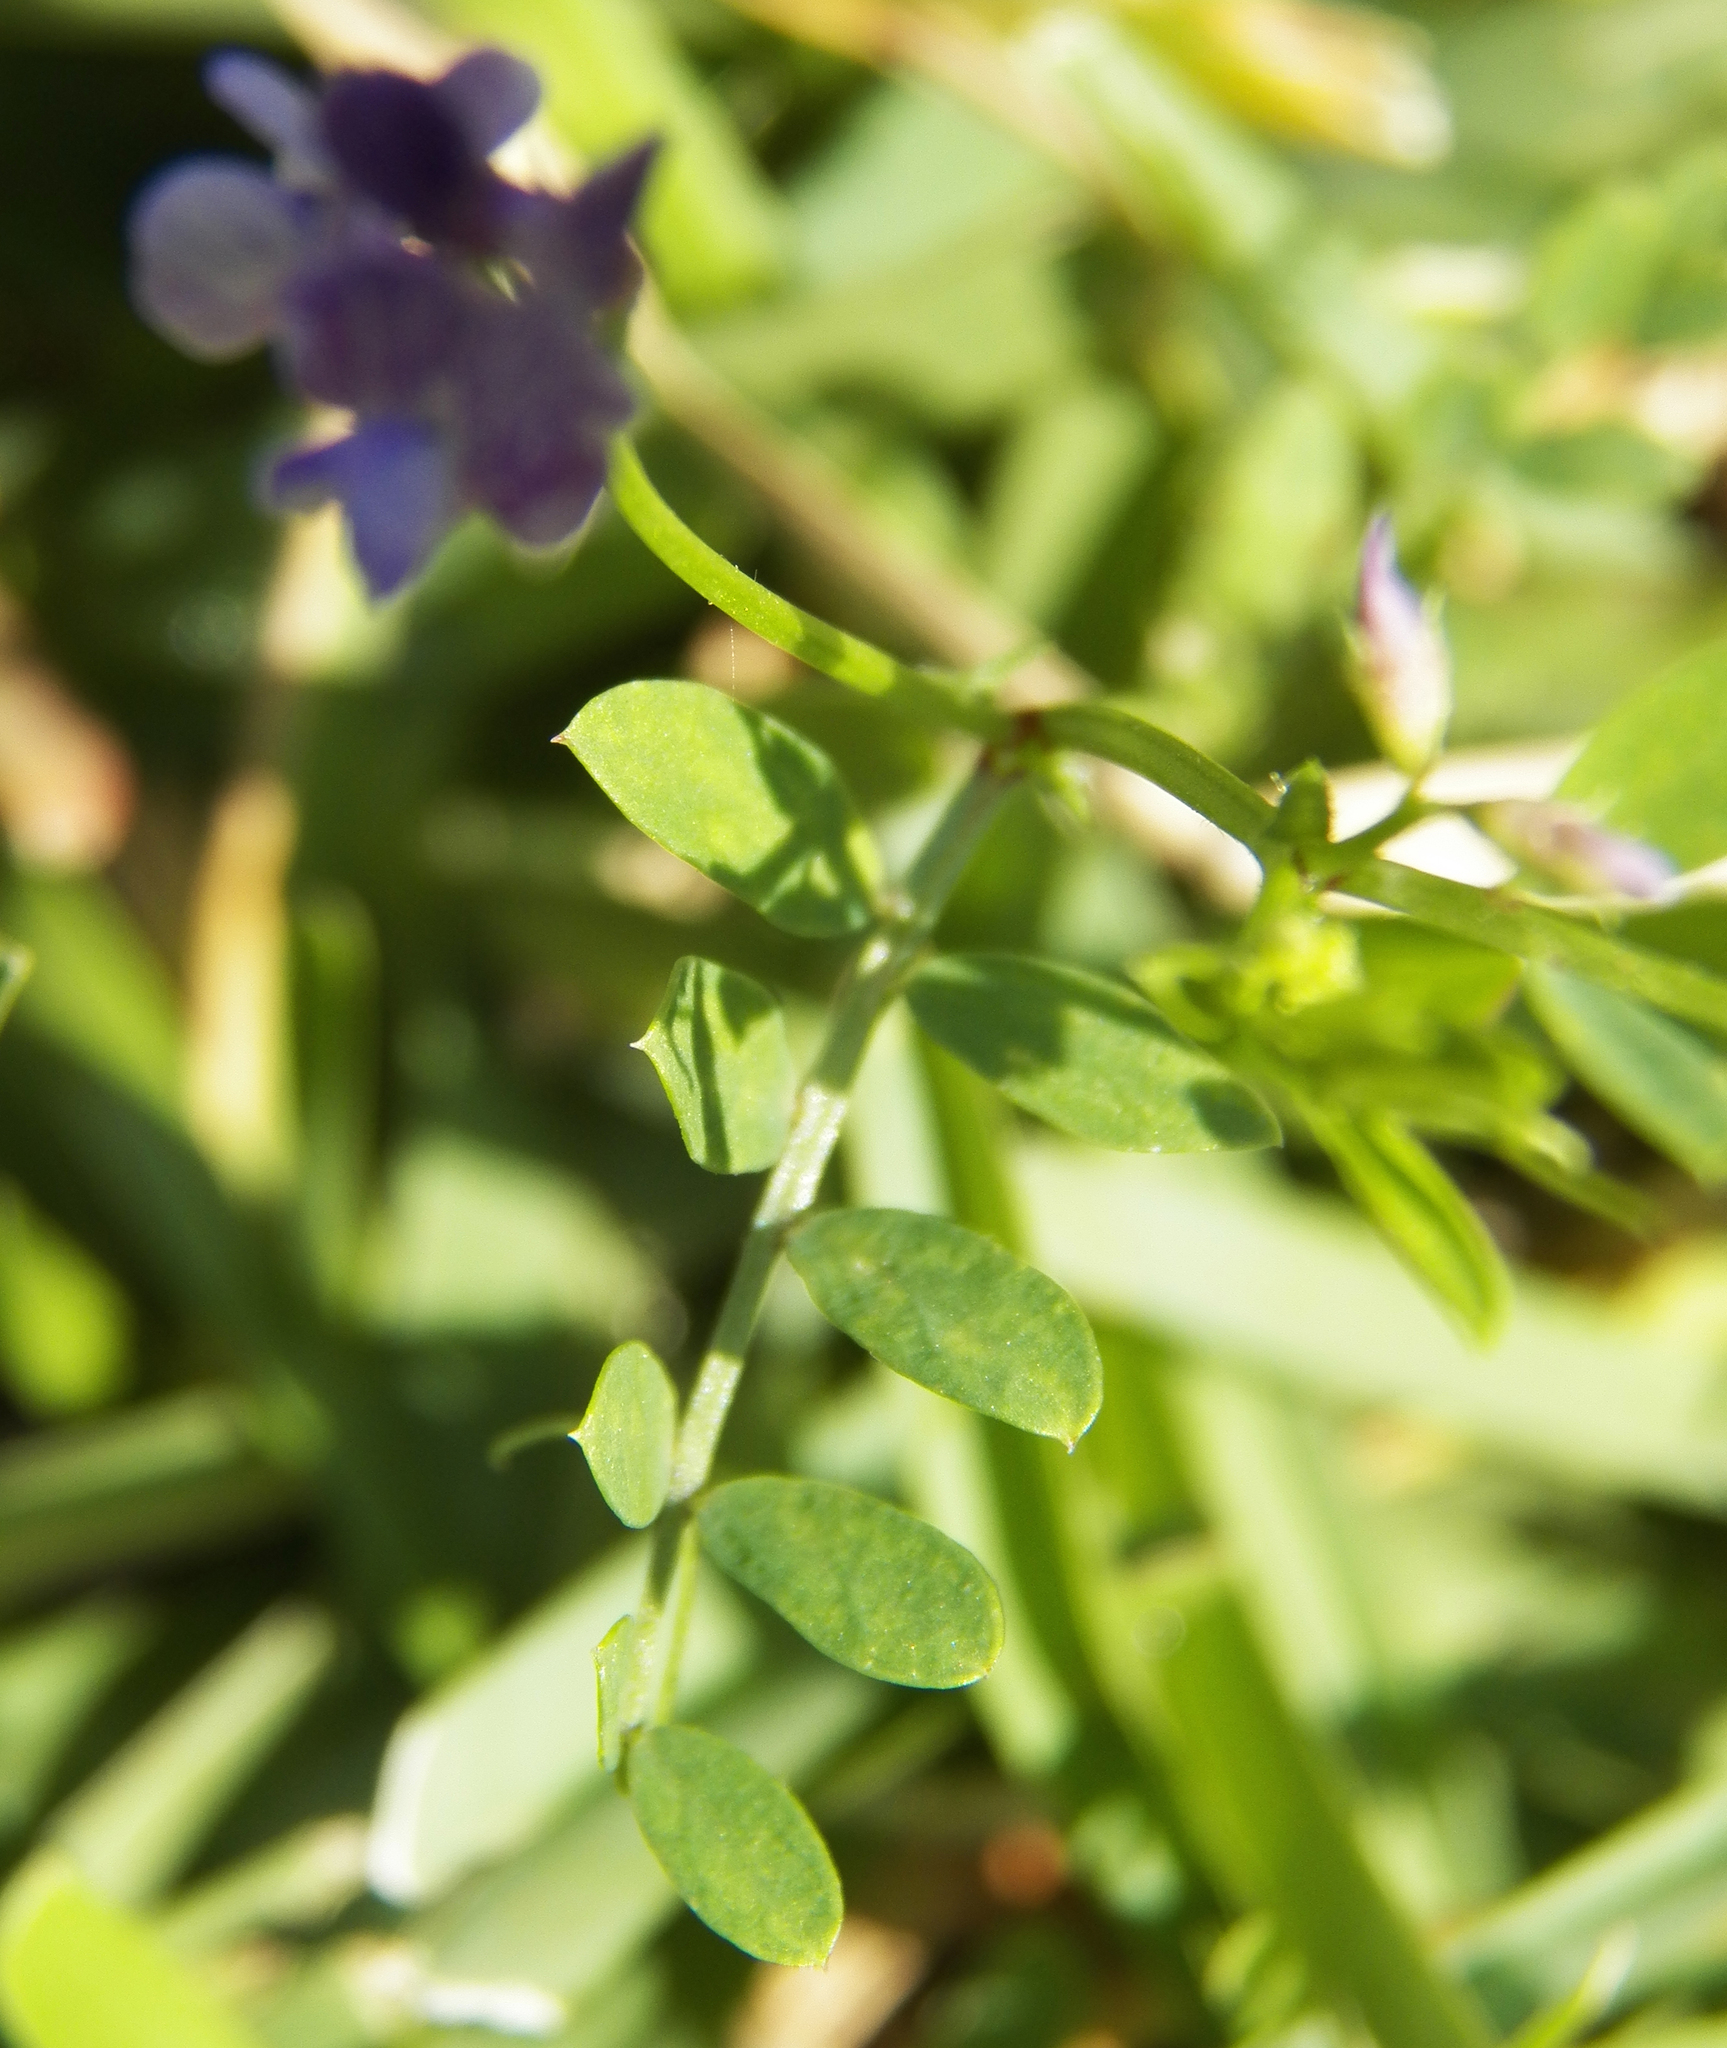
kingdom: Plantae
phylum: Tracheophyta
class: Magnoliopsida
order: Fabales
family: Fabaceae
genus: Vicia
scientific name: Vicia ludoviciana
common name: Louisiana vetch
